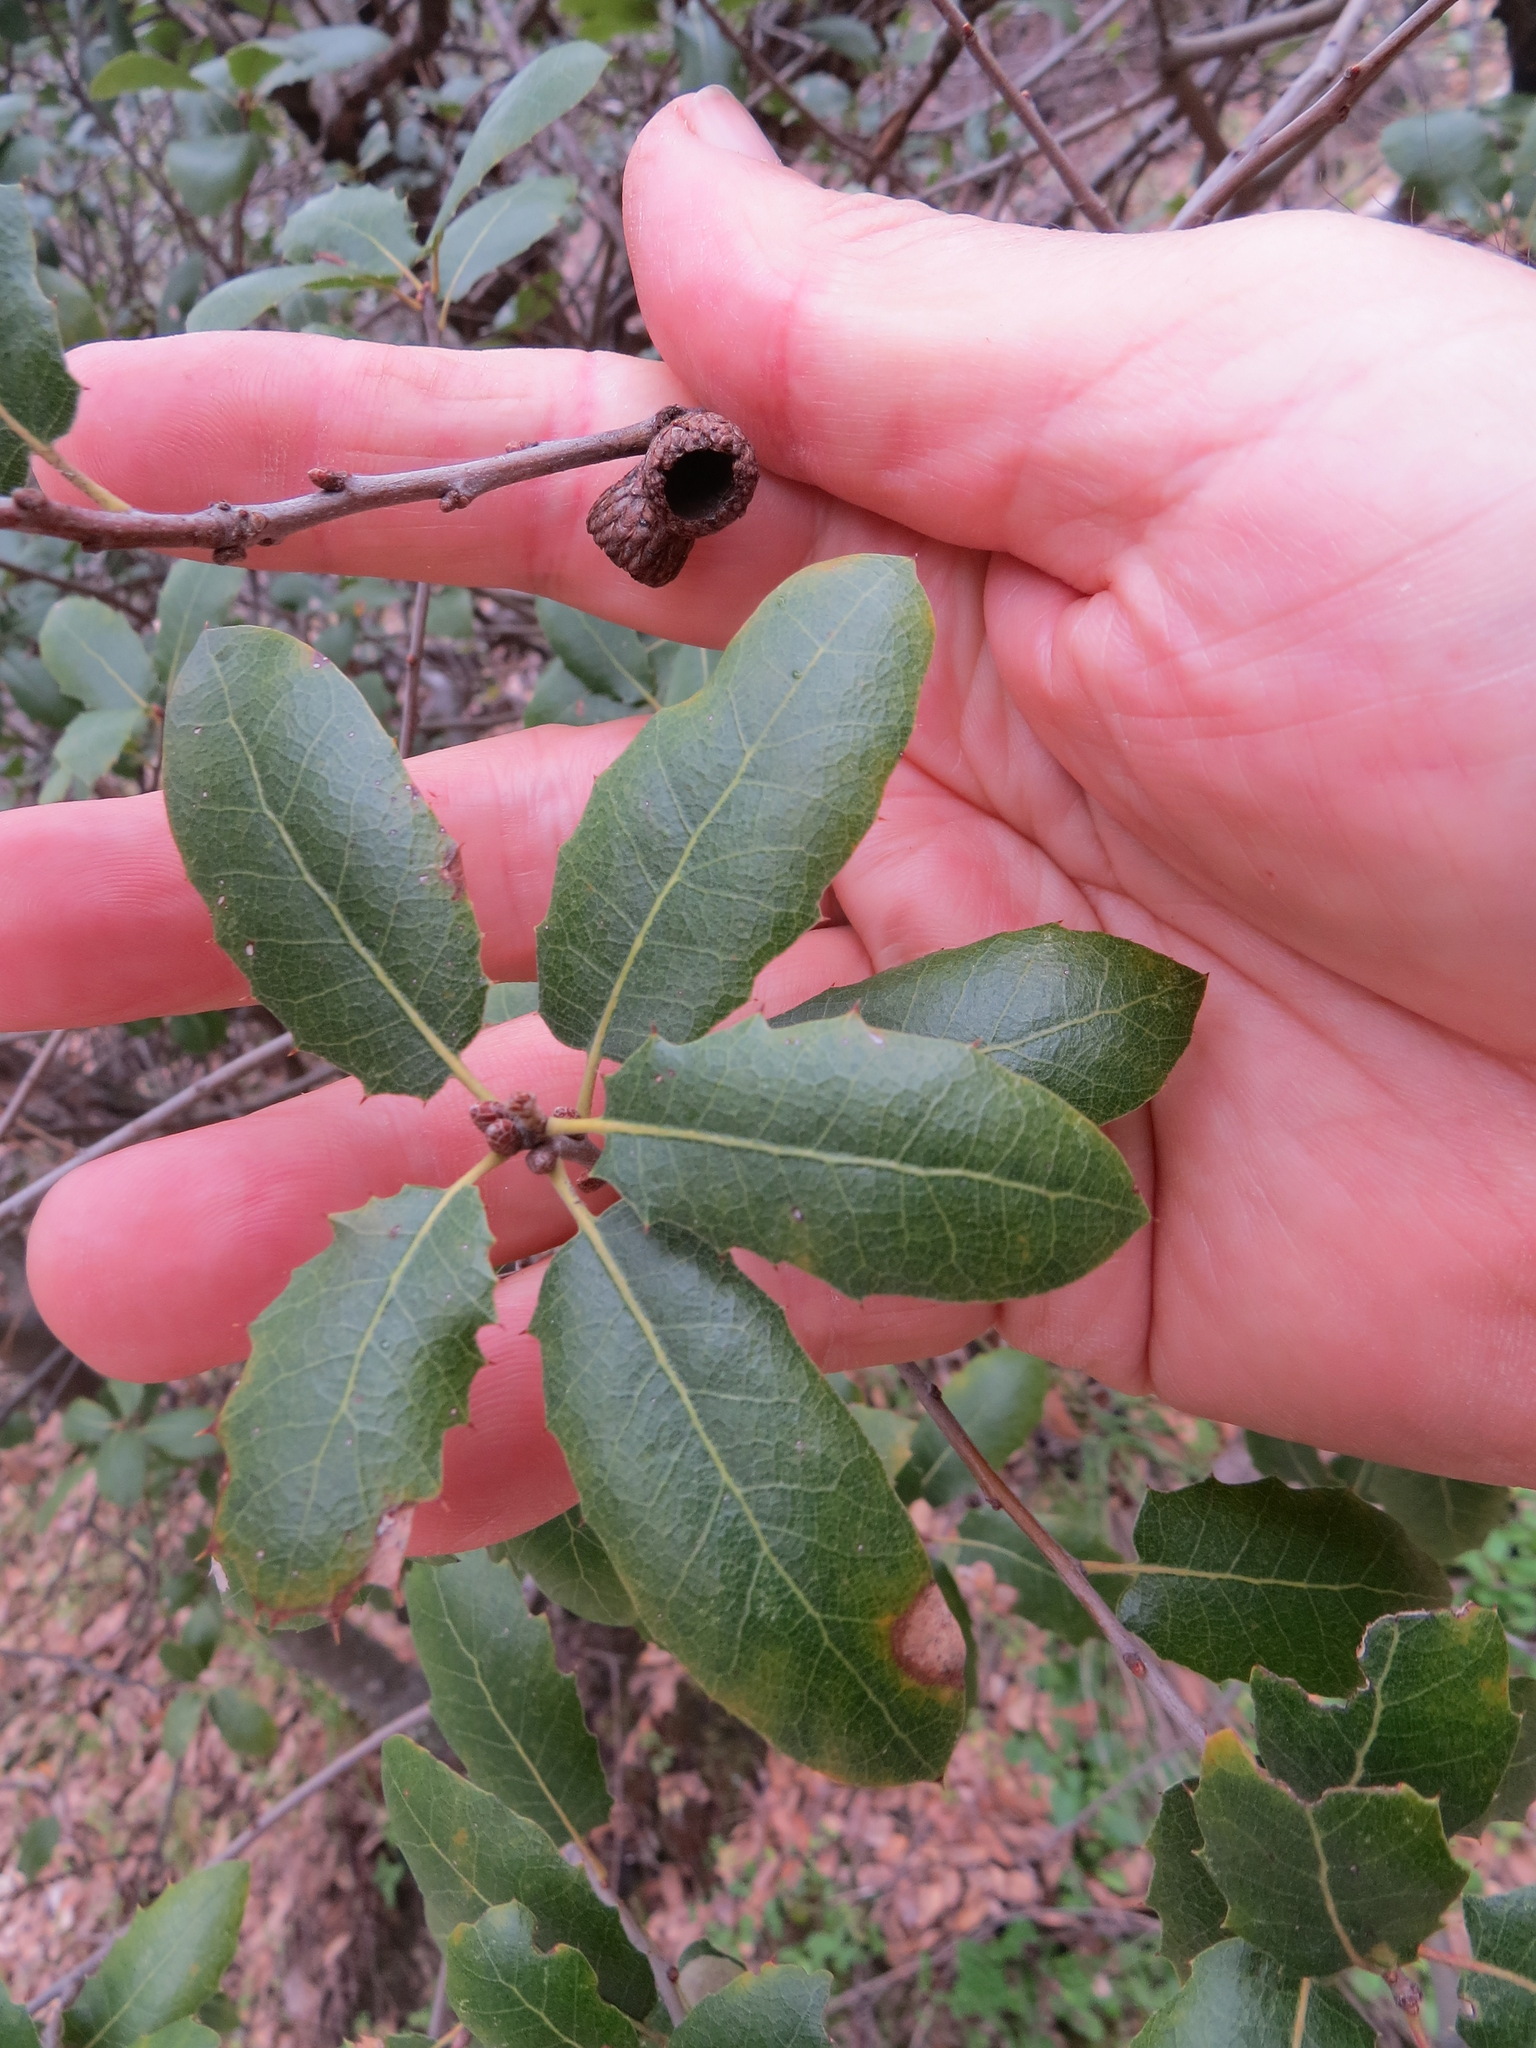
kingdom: Plantae
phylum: Tracheophyta
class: Magnoliopsida
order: Fagales
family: Fagaceae
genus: Quercus
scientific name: Quercus wislizeni
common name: Interior live oak
